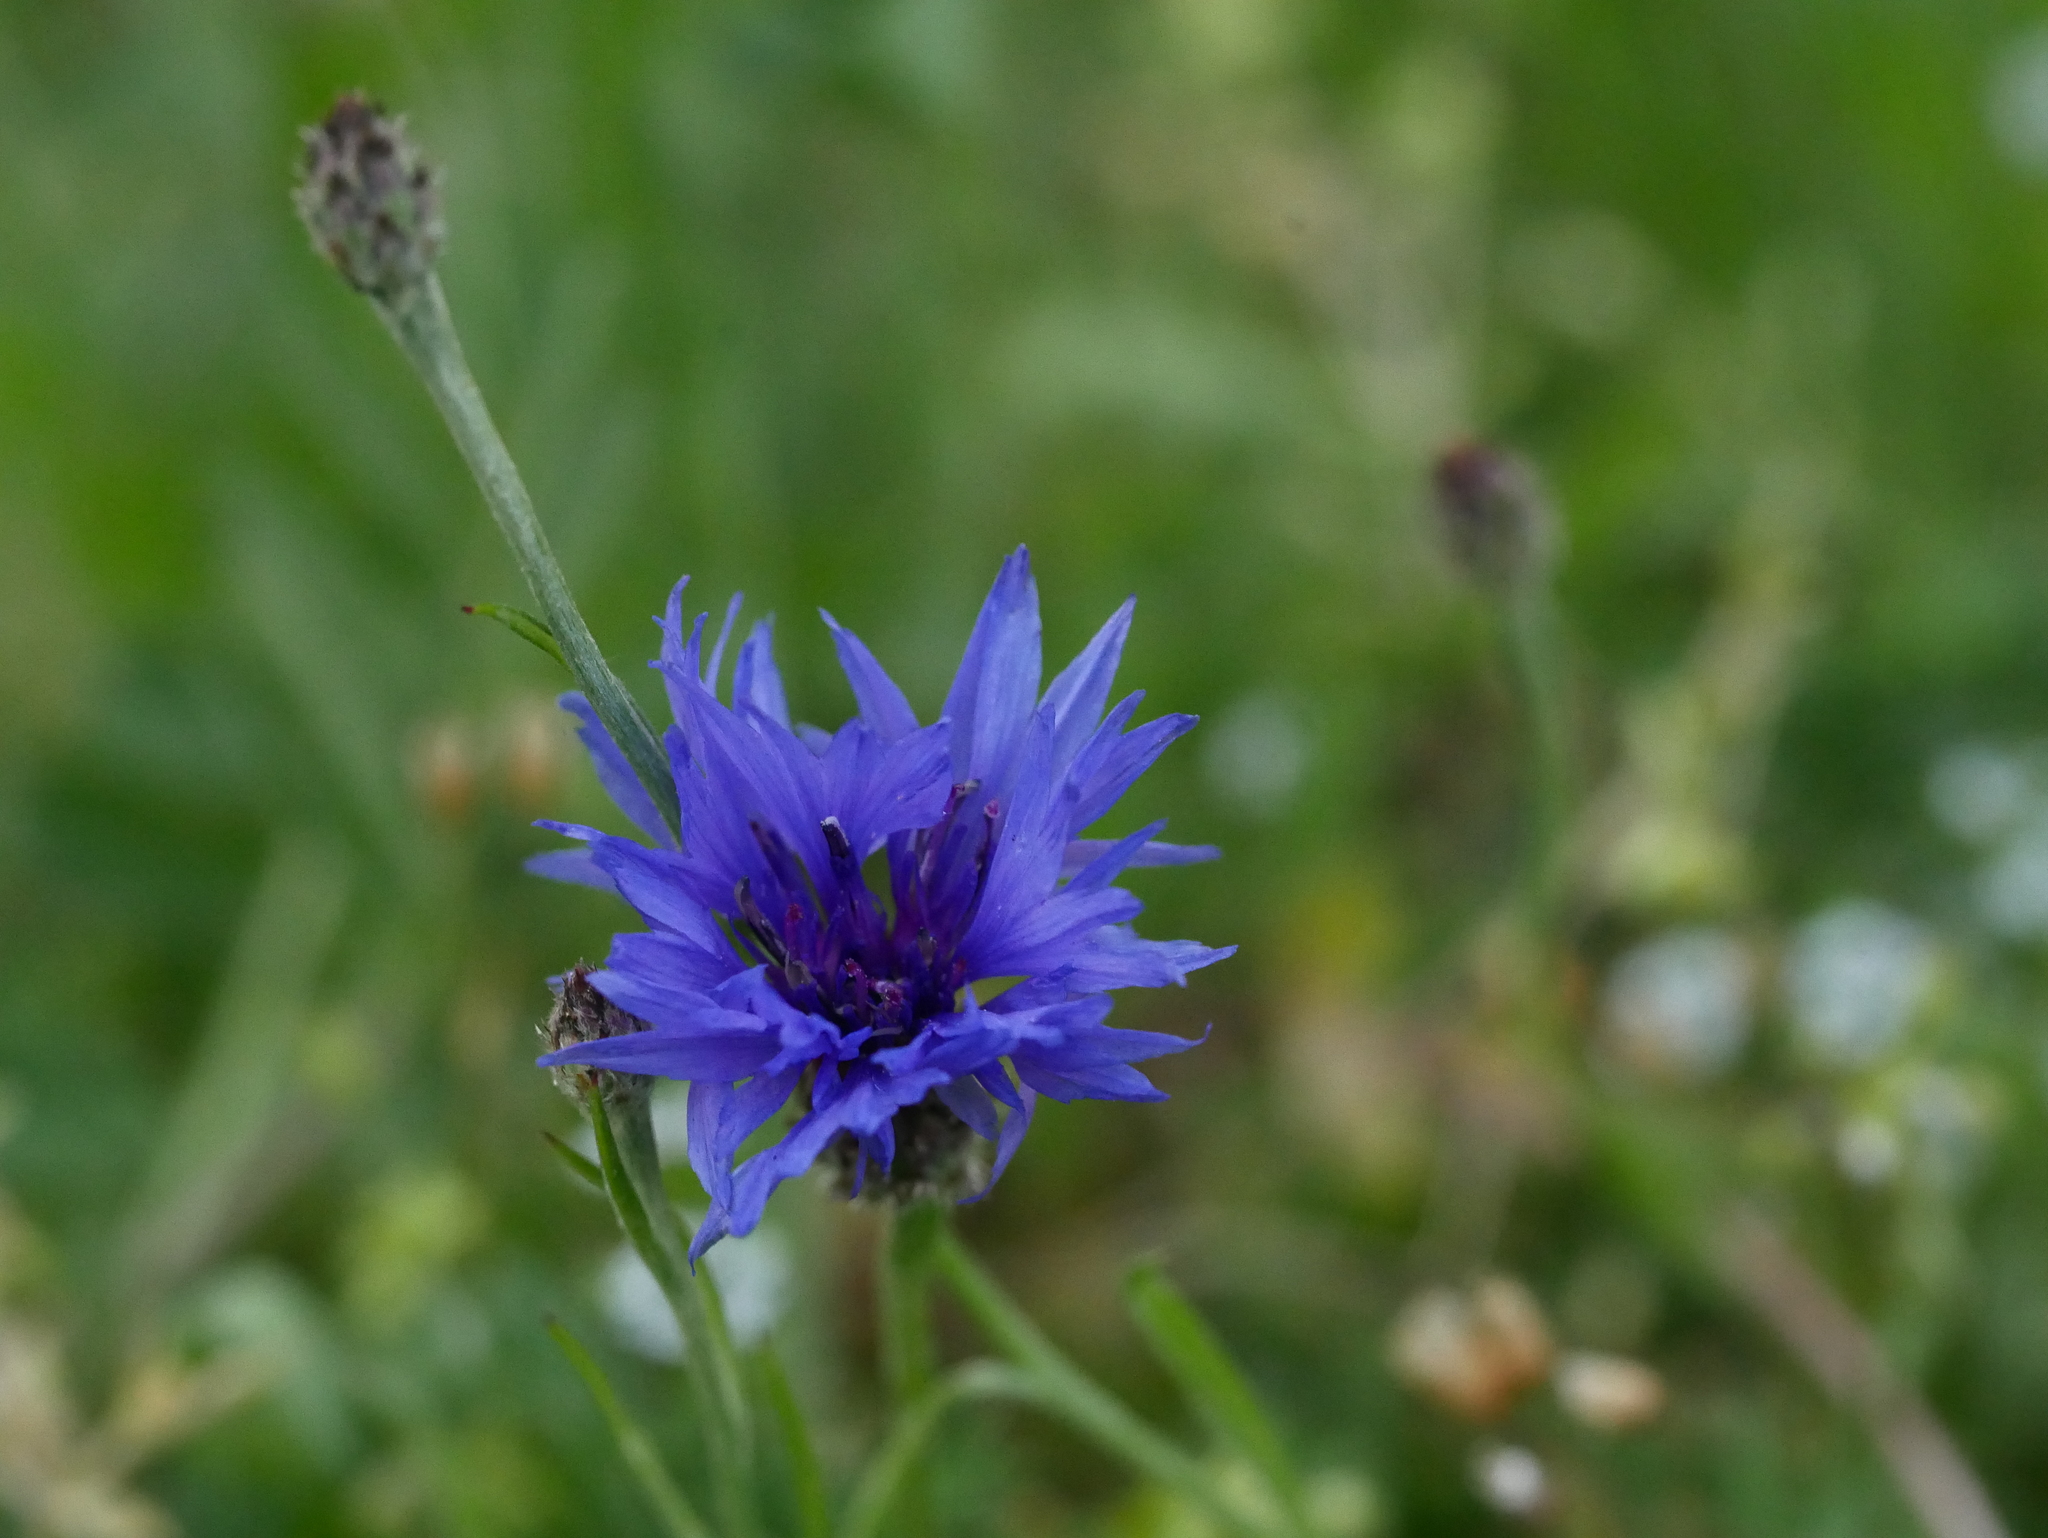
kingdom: Plantae
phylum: Tracheophyta
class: Magnoliopsida
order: Asterales
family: Asteraceae
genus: Centaurea
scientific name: Centaurea cyanus
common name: Cornflower
